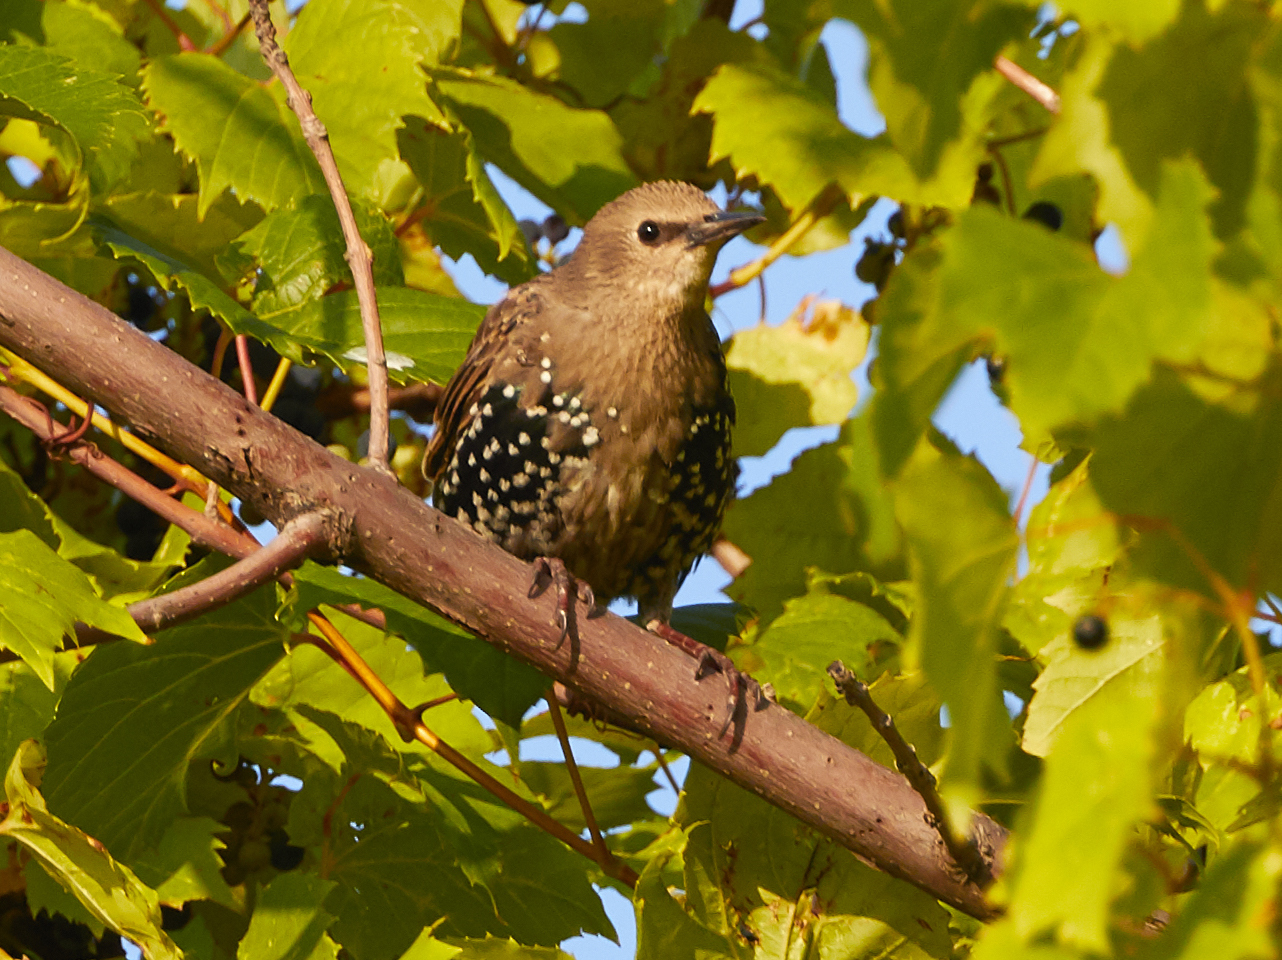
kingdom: Animalia
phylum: Chordata
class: Aves
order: Passeriformes
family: Sturnidae
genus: Sturnus
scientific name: Sturnus vulgaris
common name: Common starling
